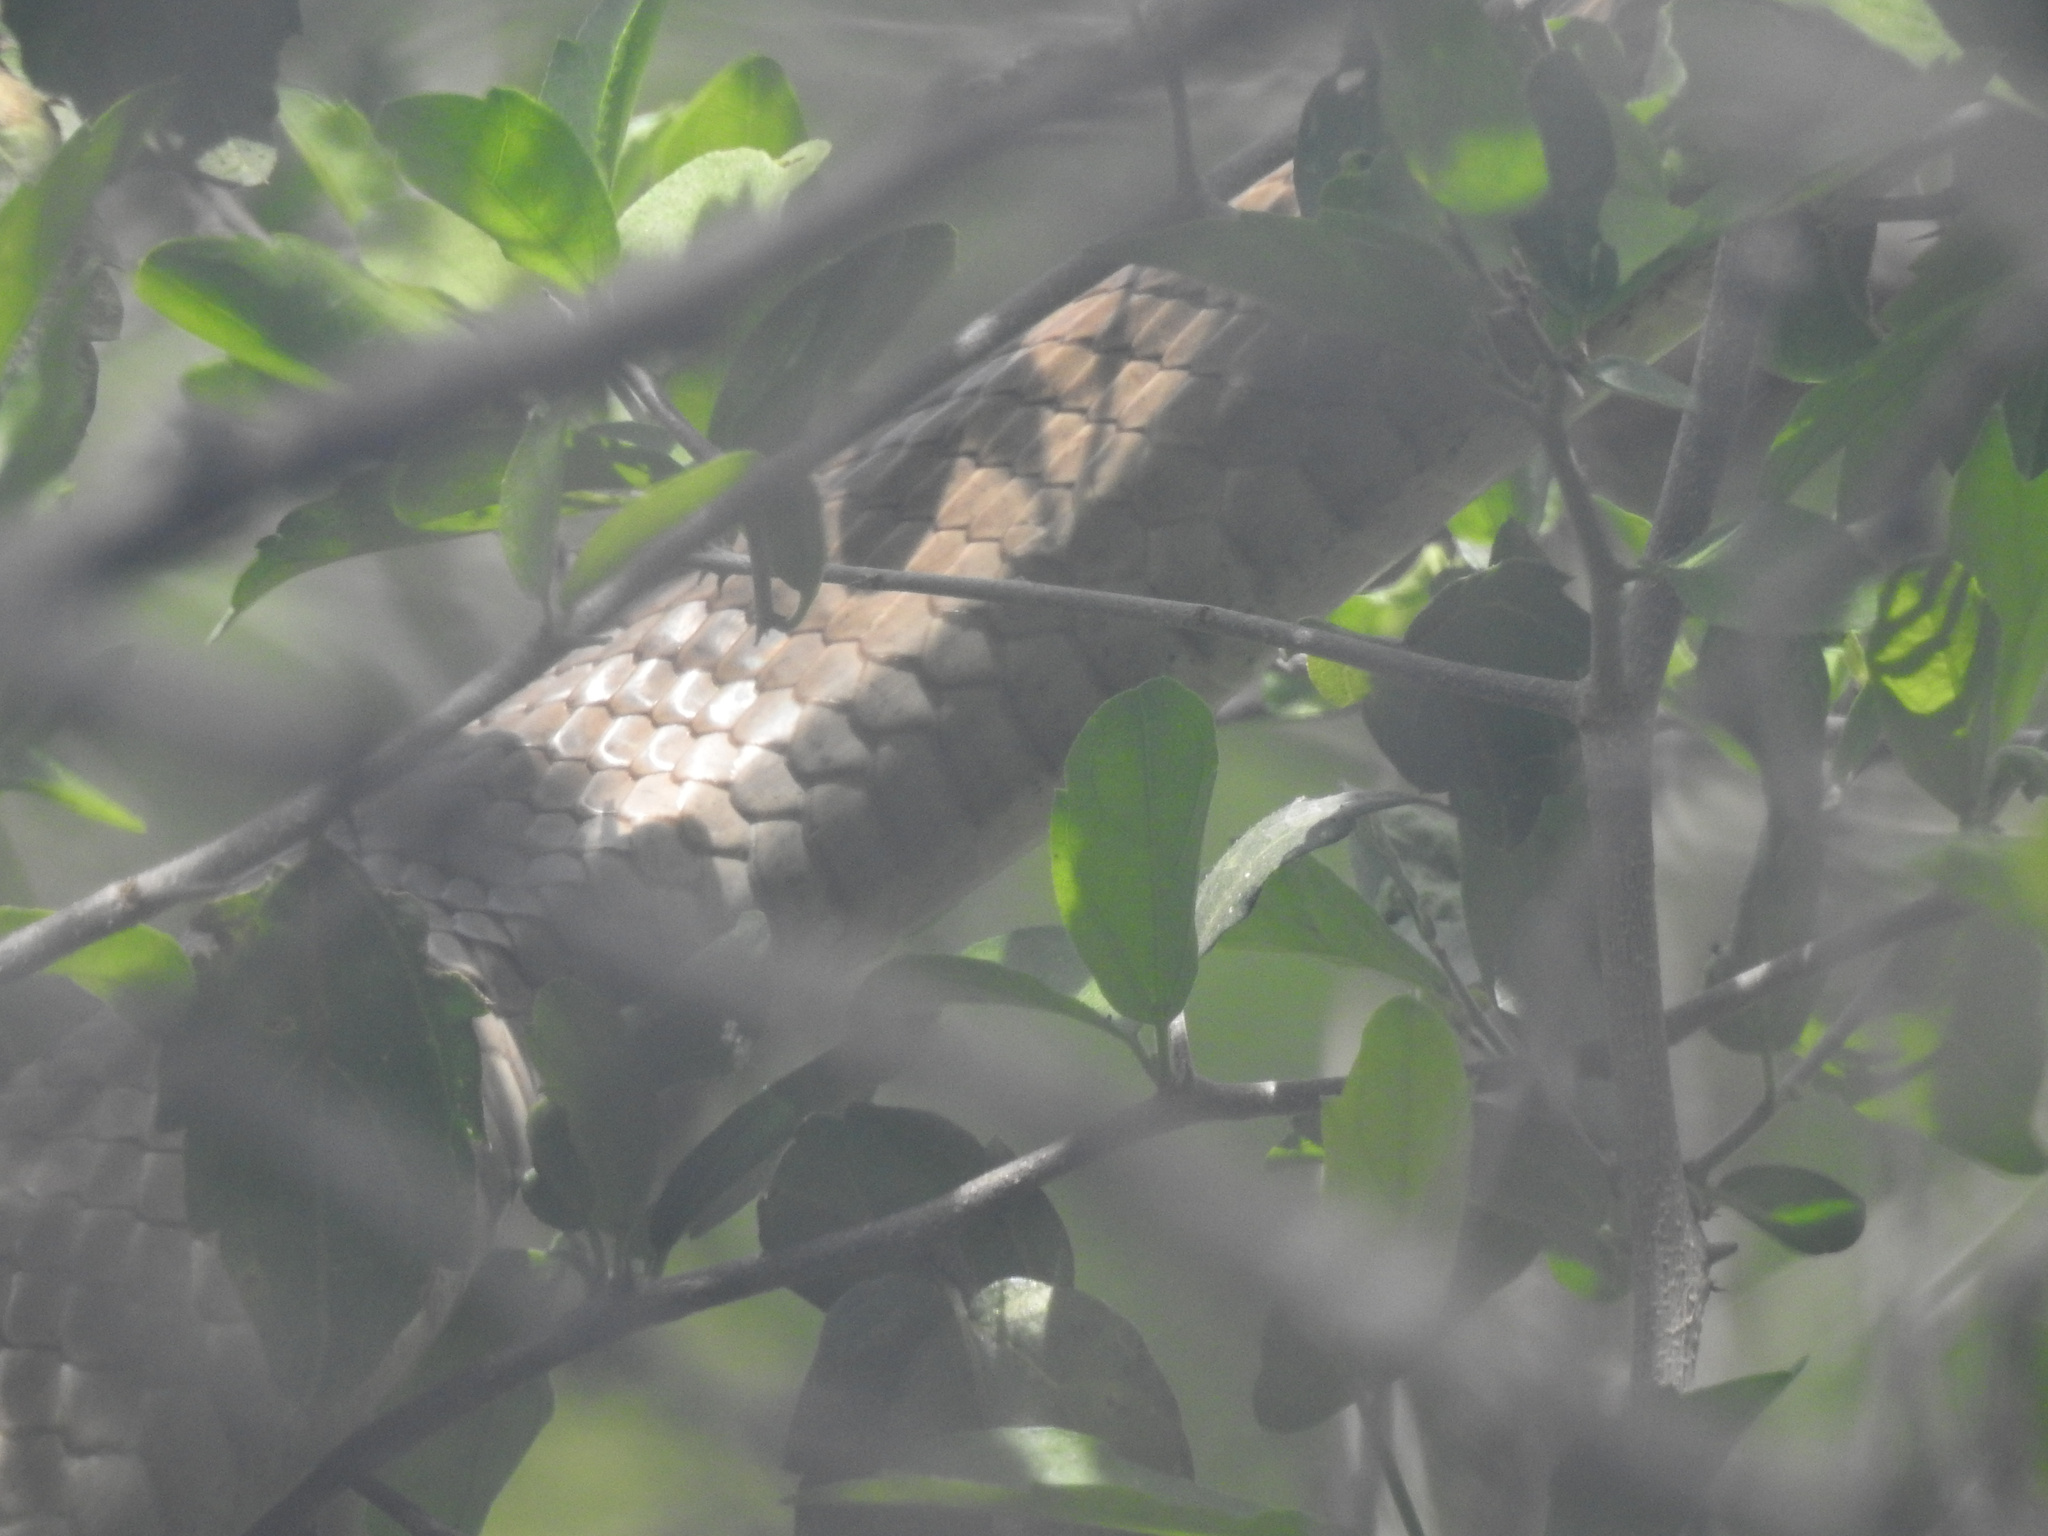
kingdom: Animalia
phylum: Chordata
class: Squamata
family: Colubridae
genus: Masticophis
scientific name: Masticophis flagellum
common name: Coachwhip
